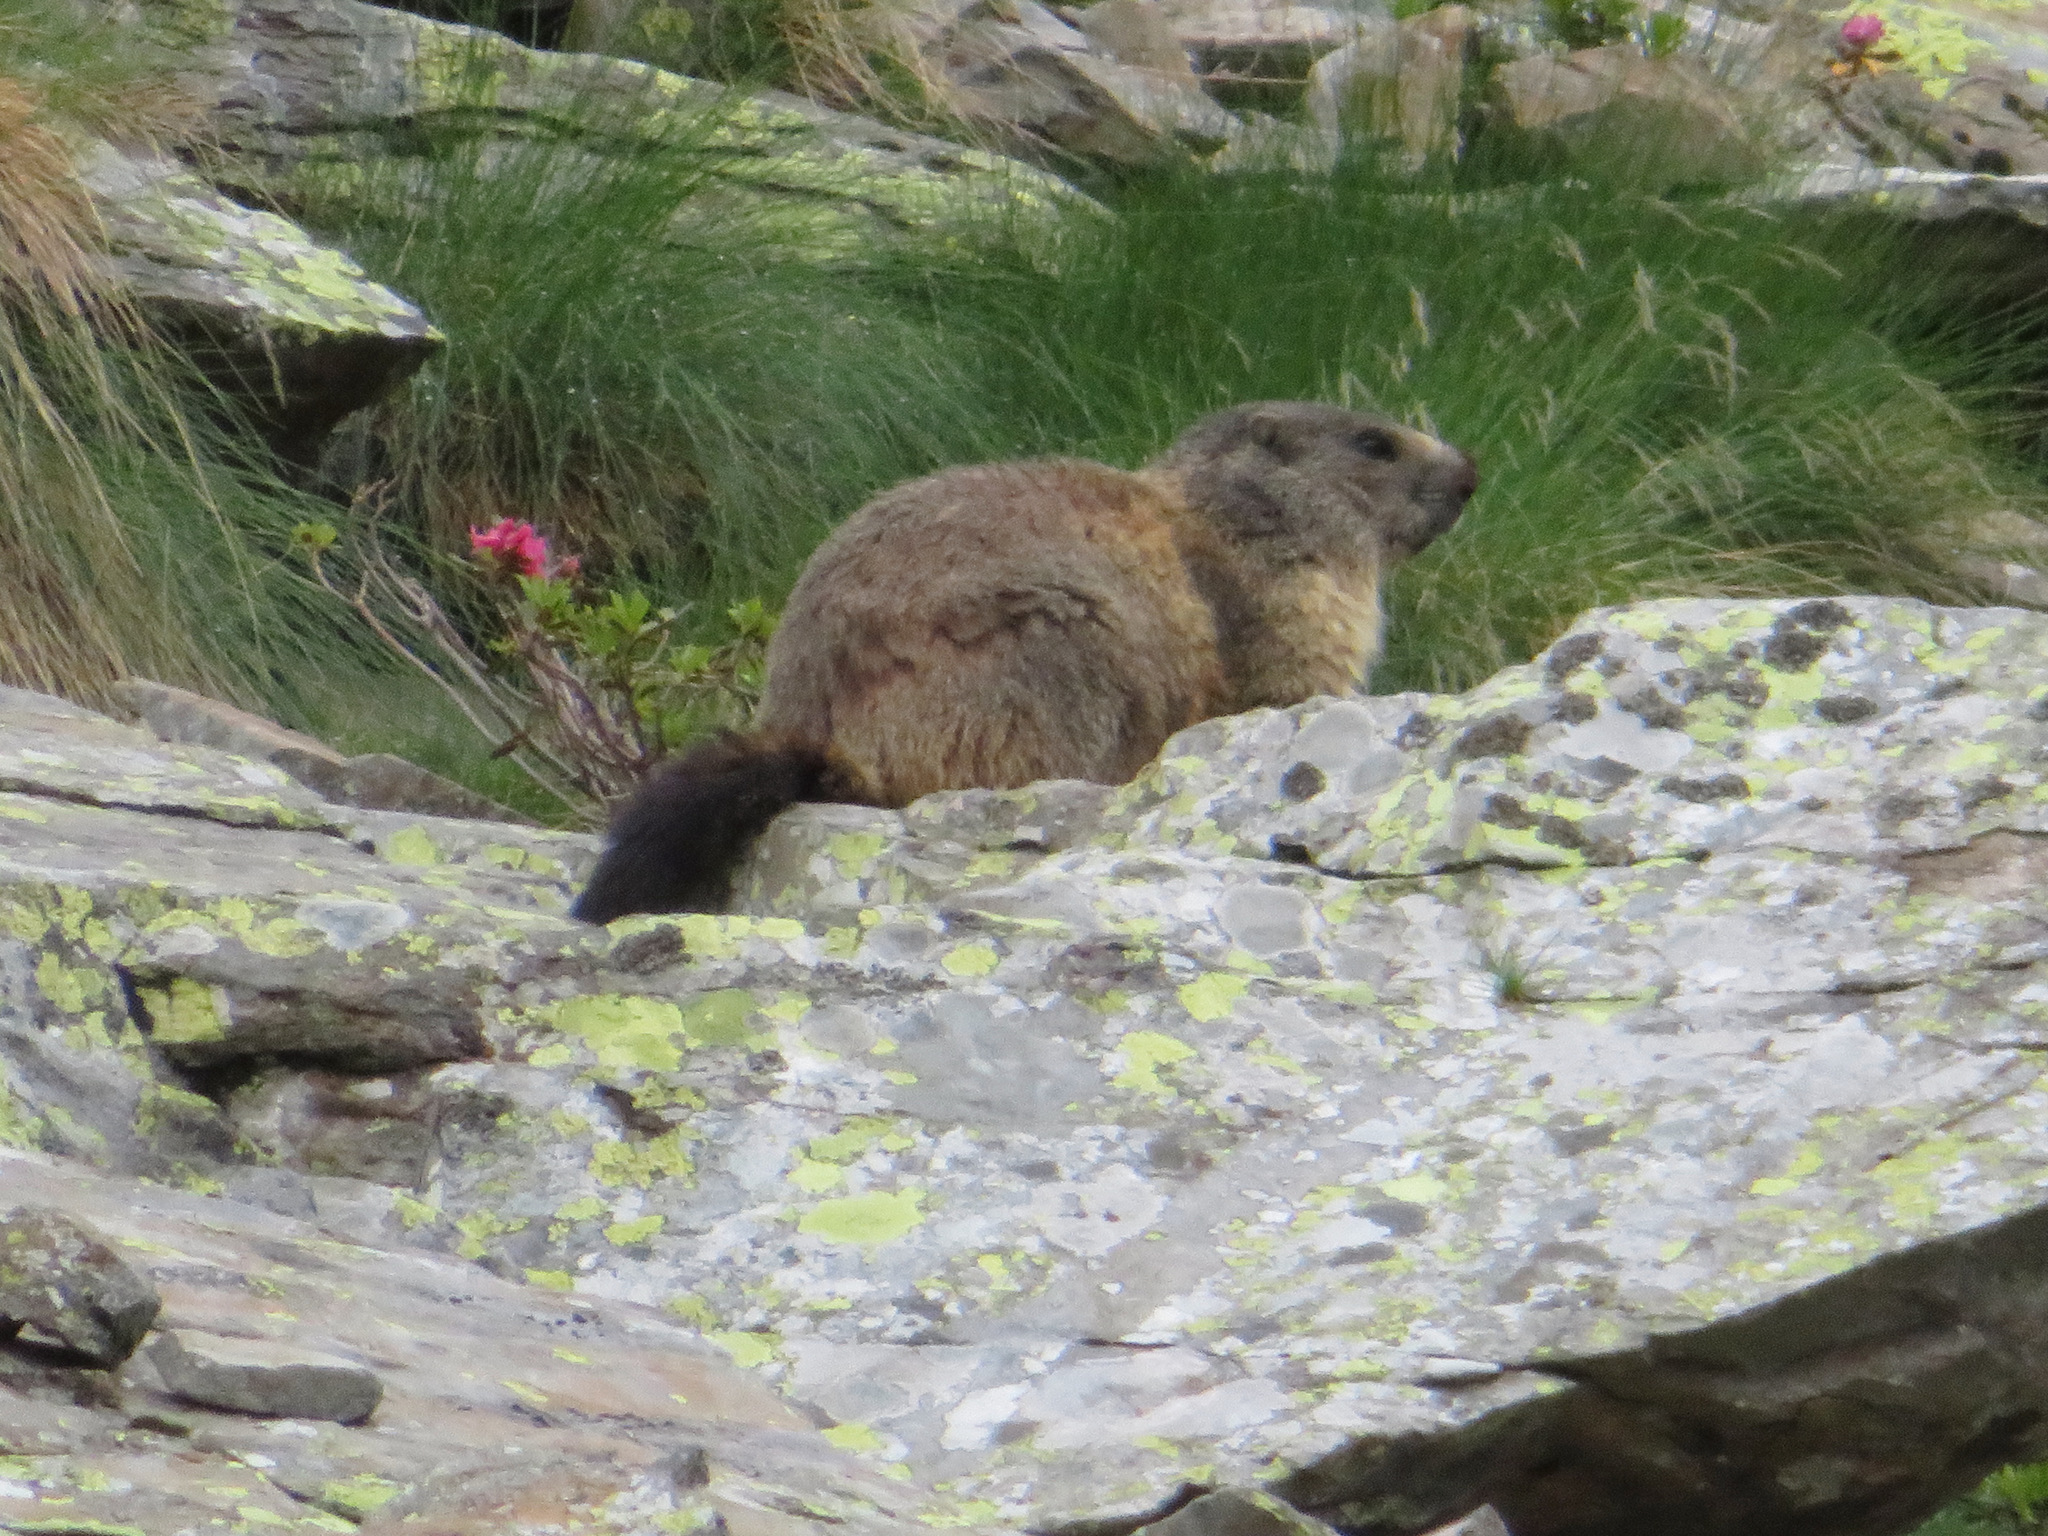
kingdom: Animalia
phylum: Chordata
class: Mammalia
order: Rodentia
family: Sciuridae
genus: Marmota
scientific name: Marmota marmota
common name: Alpine marmot
